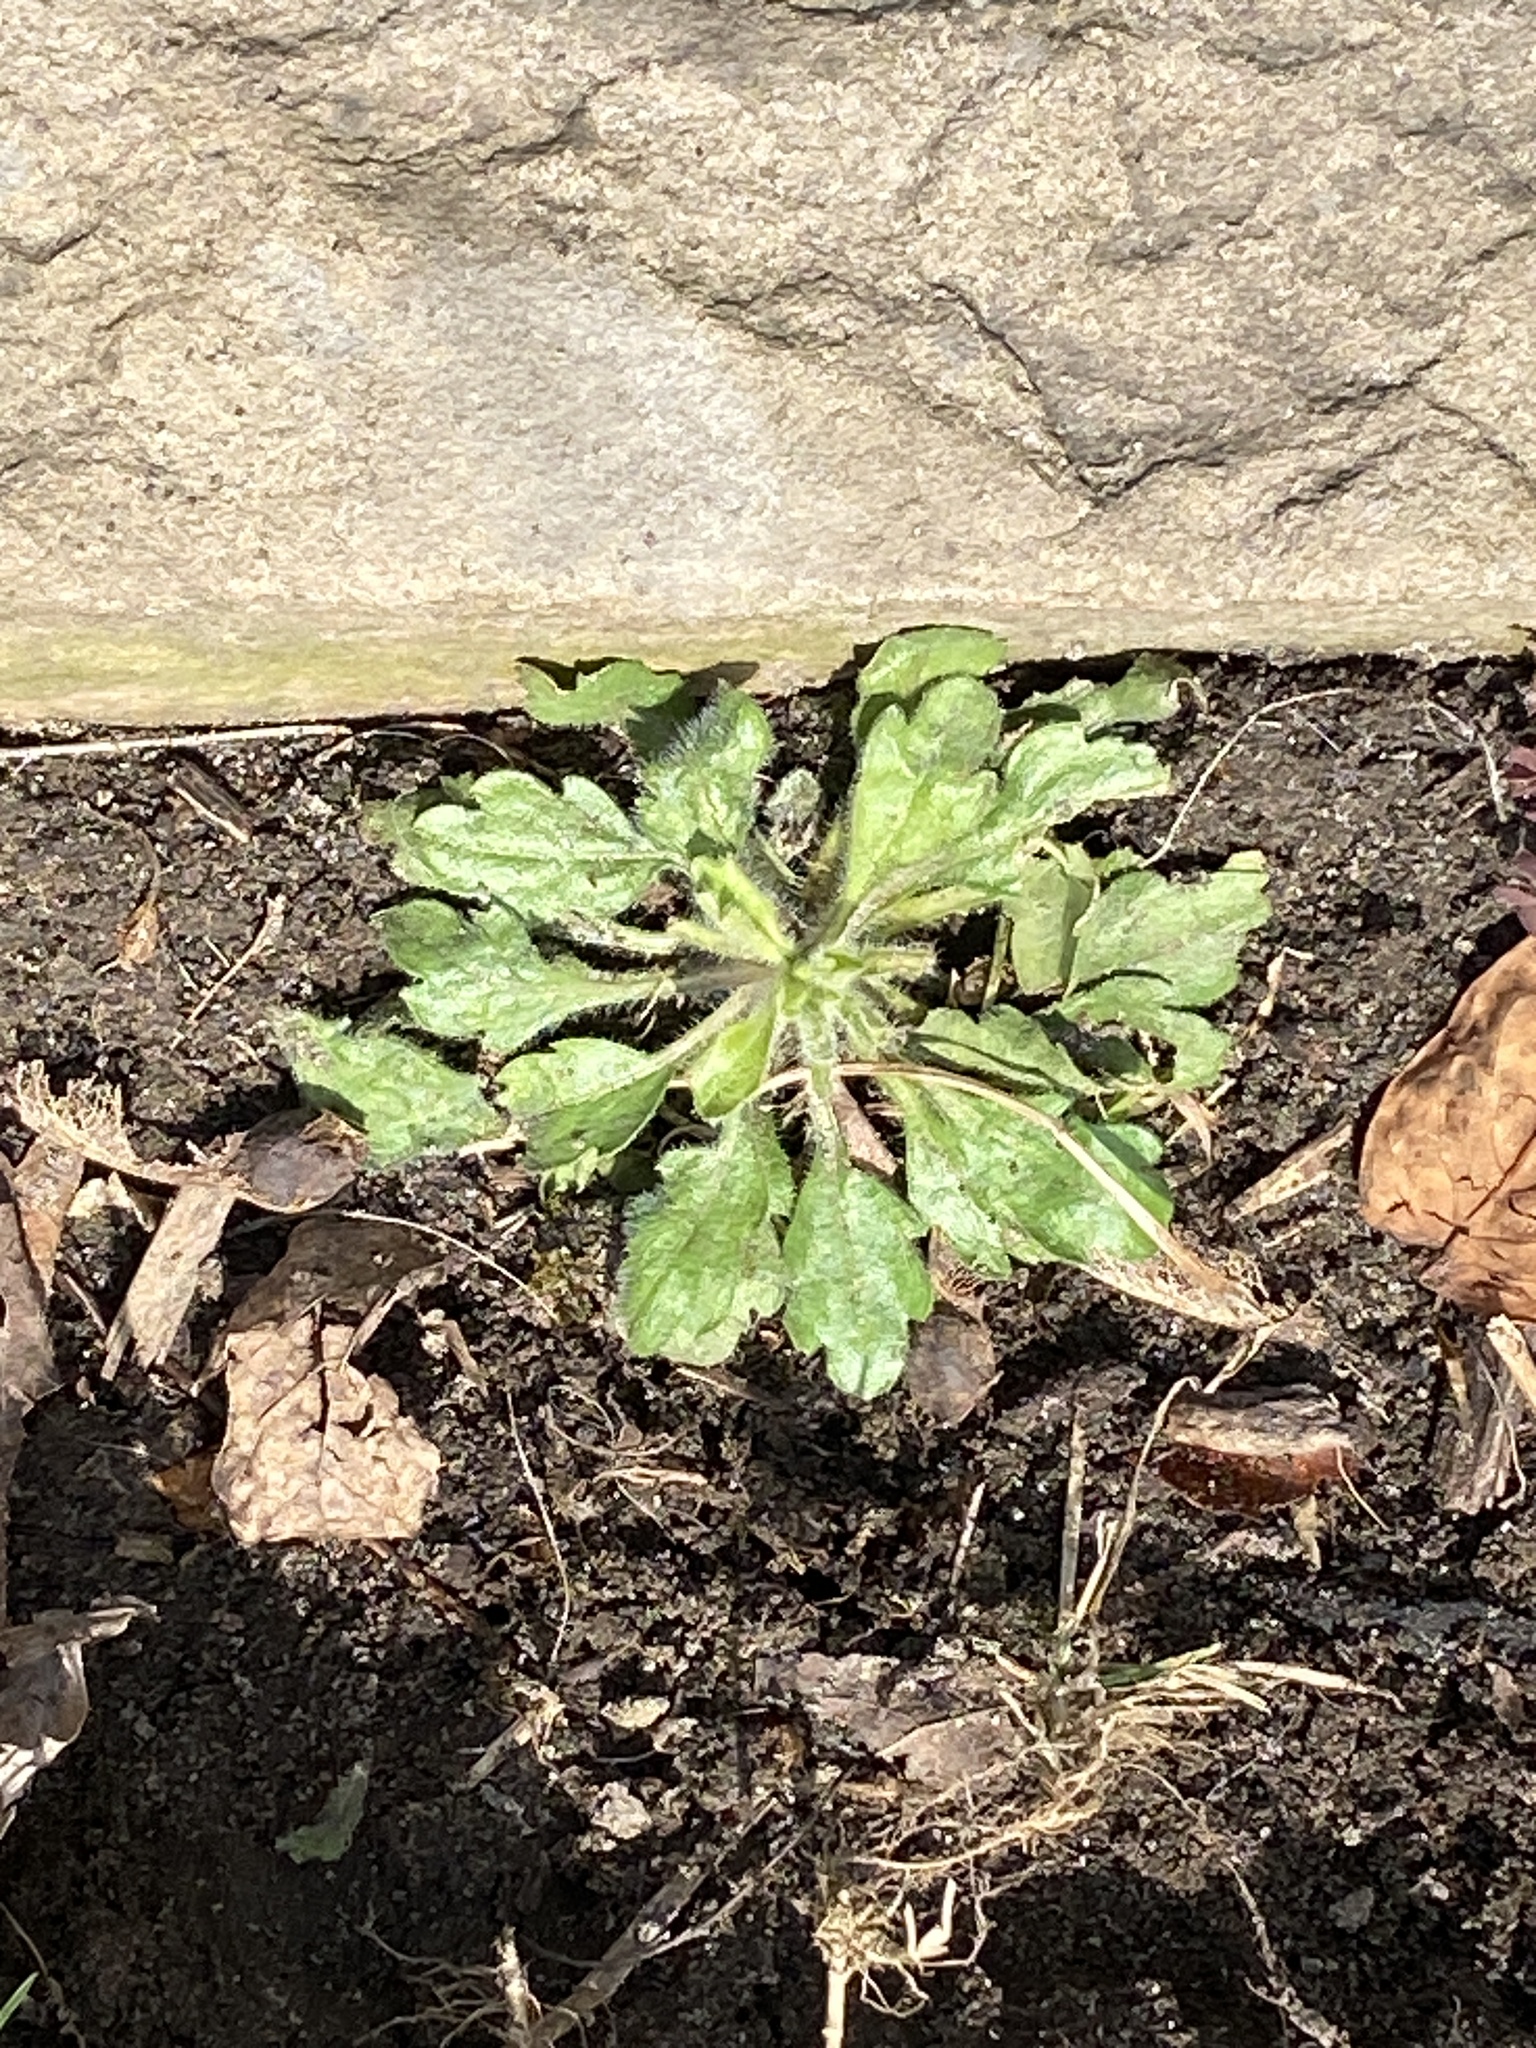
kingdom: Plantae
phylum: Tracheophyta
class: Magnoliopsida
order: Asterales
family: Asteraceae
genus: Erigeron
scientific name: Erigeron canadensis
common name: Canadian fleabane
